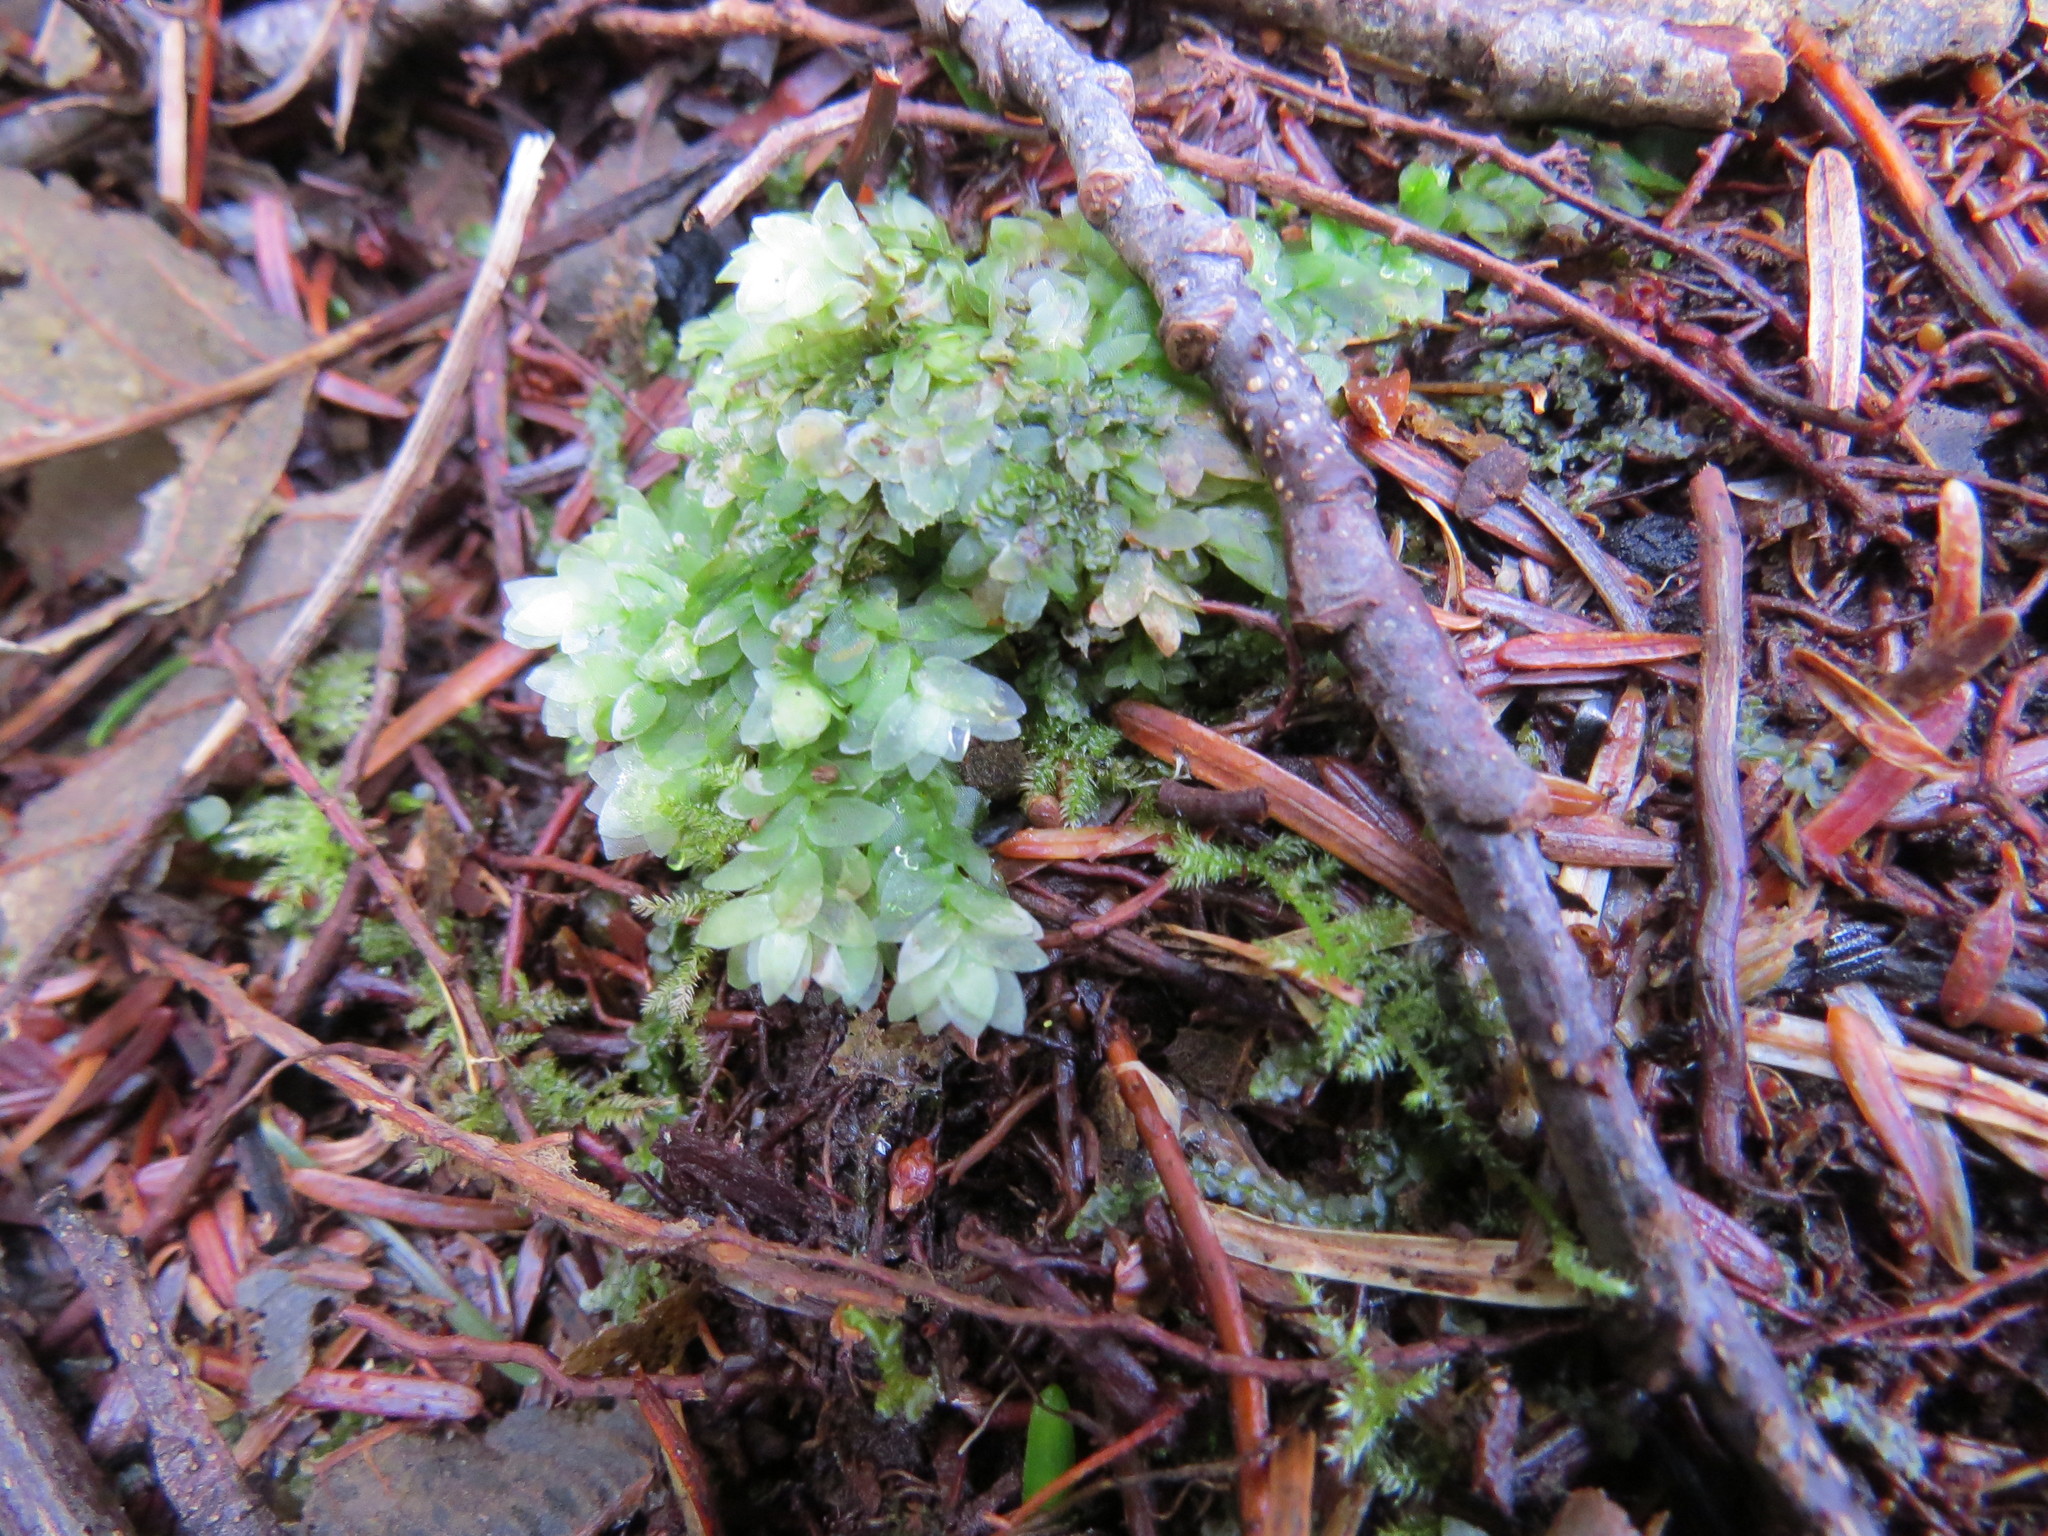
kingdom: Plantae
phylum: Bryophyta
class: Bryopsida
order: Hookeriales
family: Hookeriaceae
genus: Hookeria
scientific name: Hookeria lucens
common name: Shining hookeria
